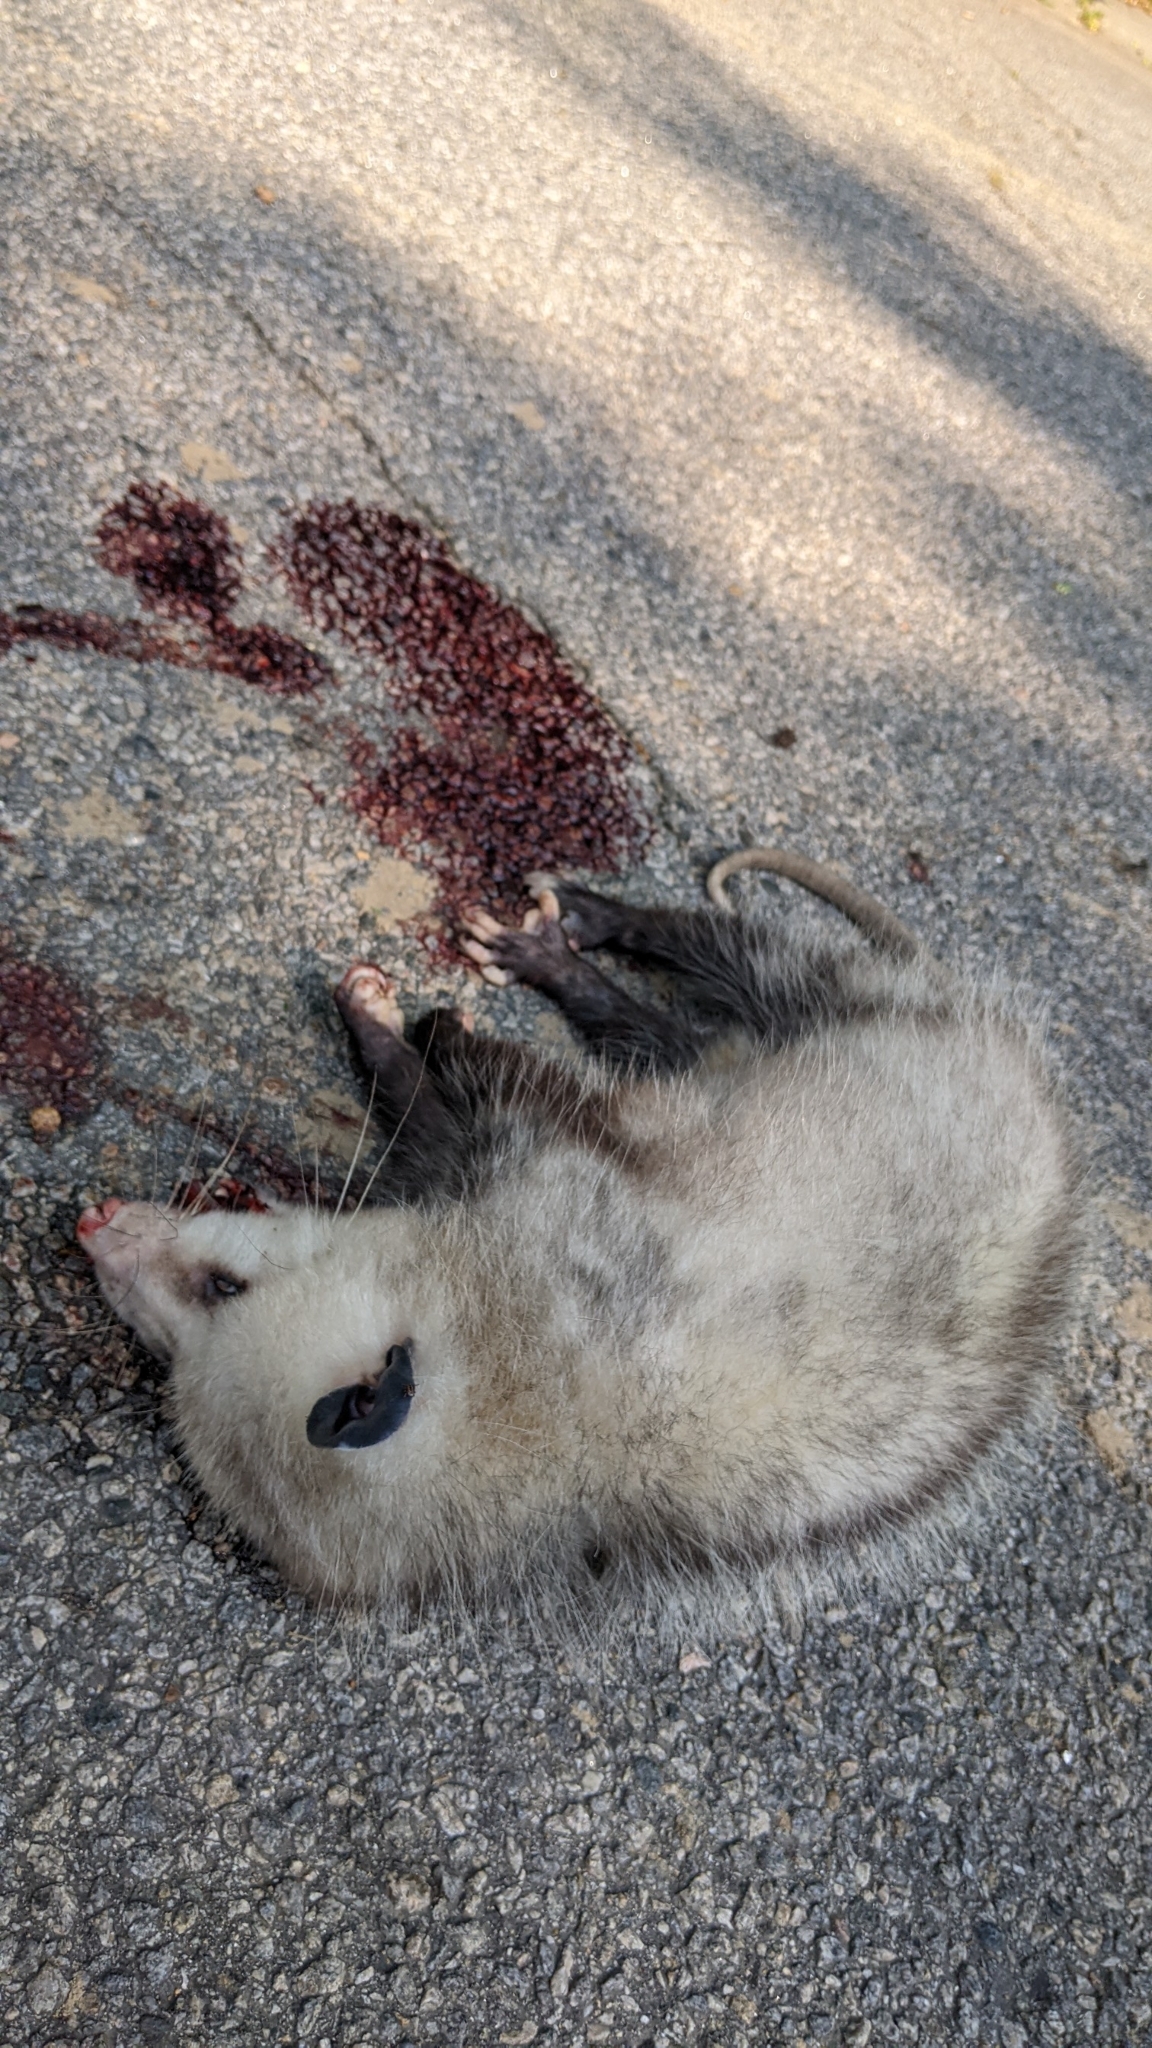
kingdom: Animalia
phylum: Chordata
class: Mammalia
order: Didelphimorphia
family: Didelphidae
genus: Didelphis
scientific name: Didelphis virginiana
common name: Virginia opossum
